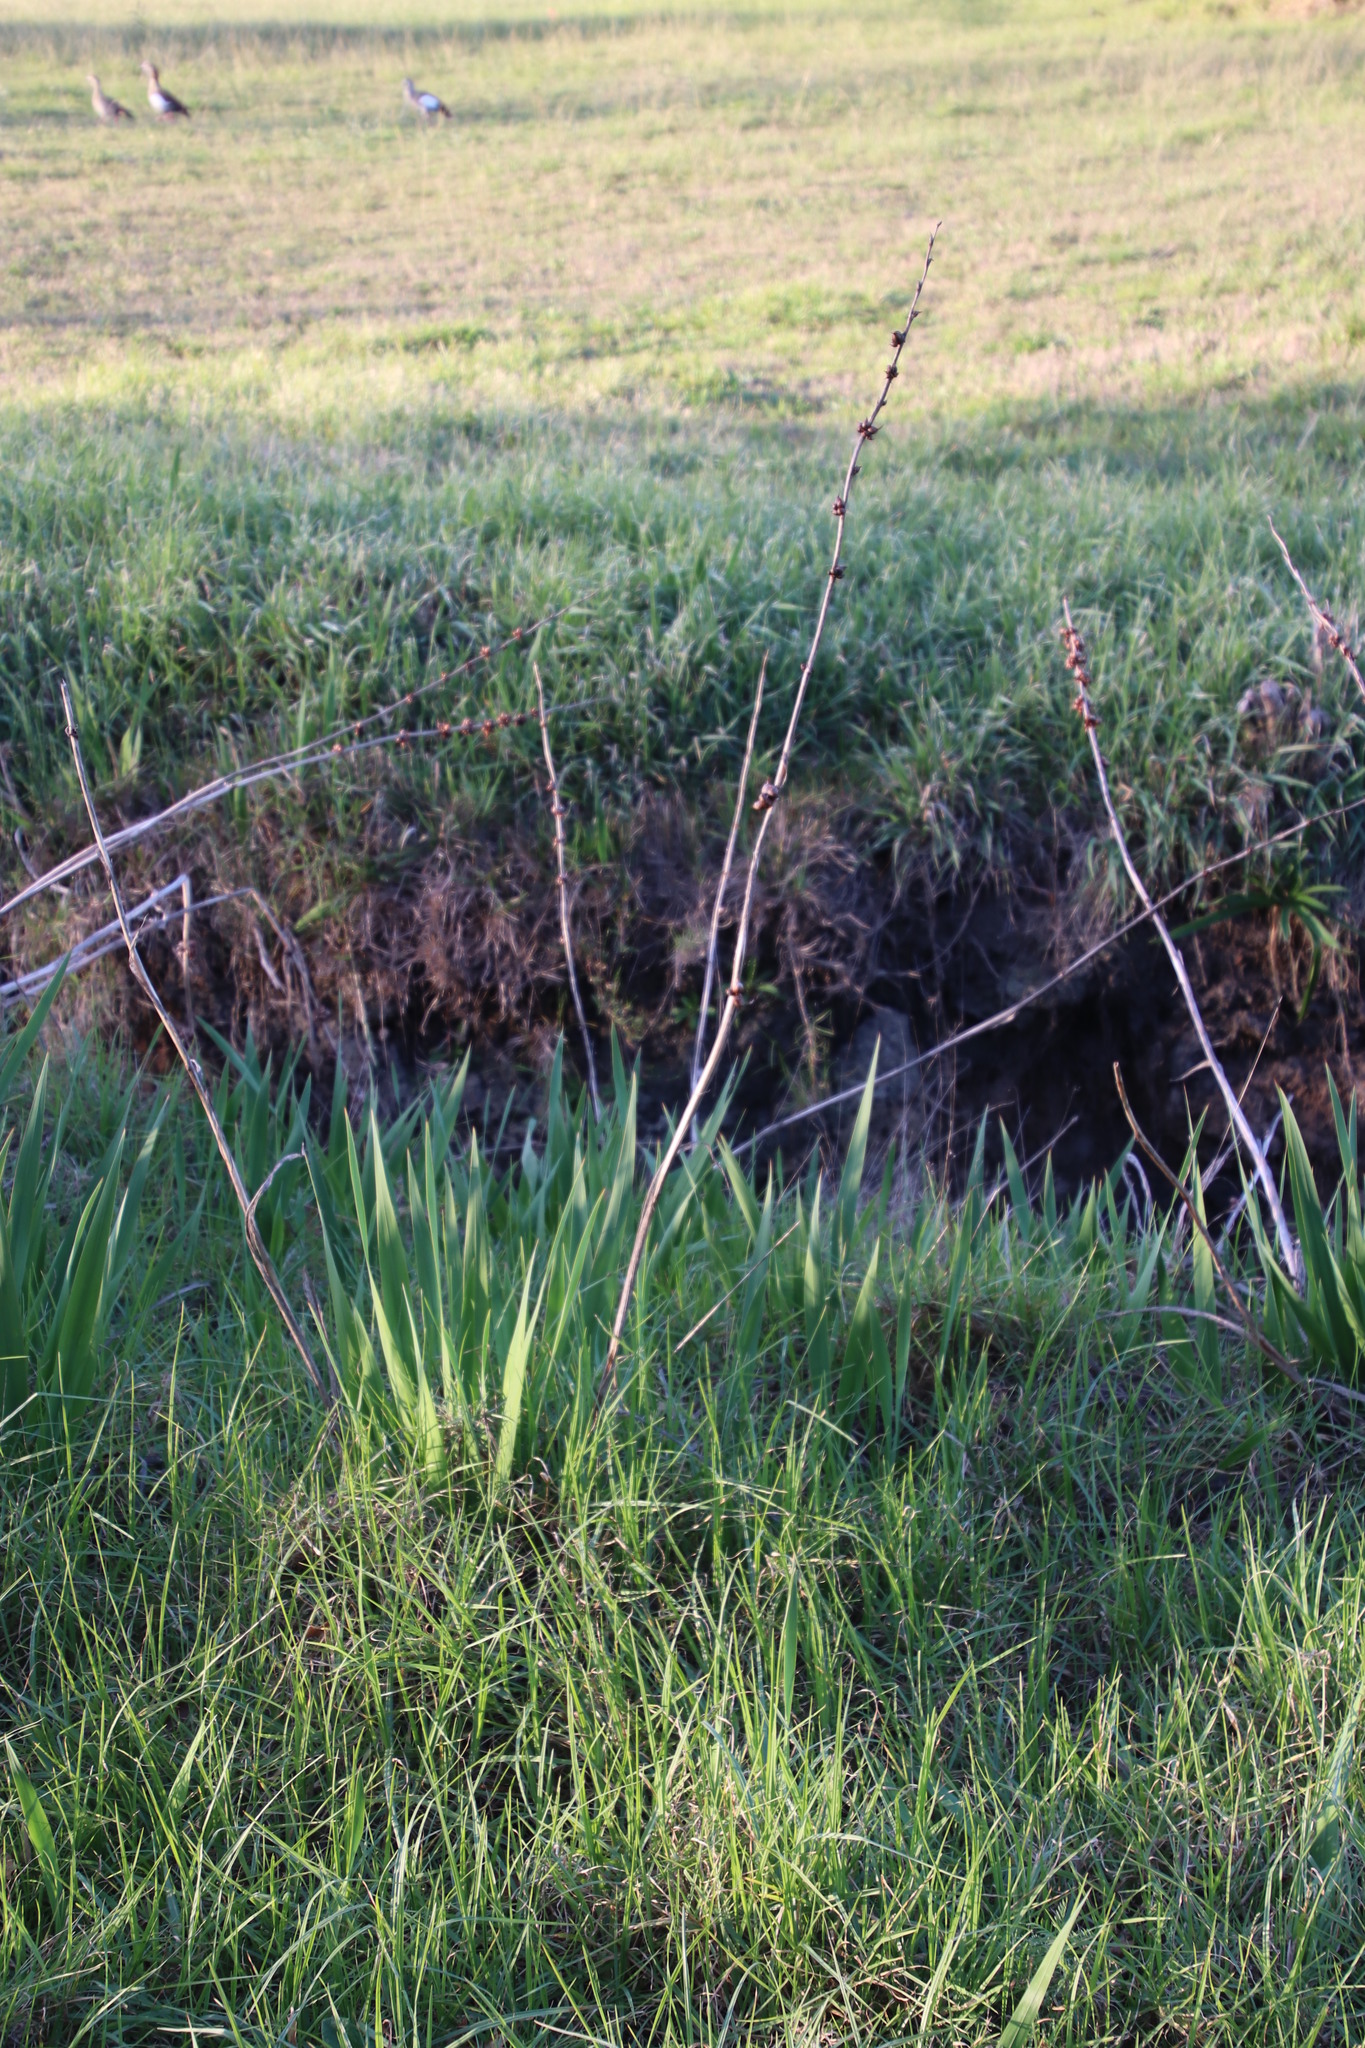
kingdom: Plantae
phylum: Tracheophyta
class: Liliopsida
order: Asparagales
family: Iridaceae
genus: Watsonia
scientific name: Watsonia meriana
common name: Bulbil bugle-lily
